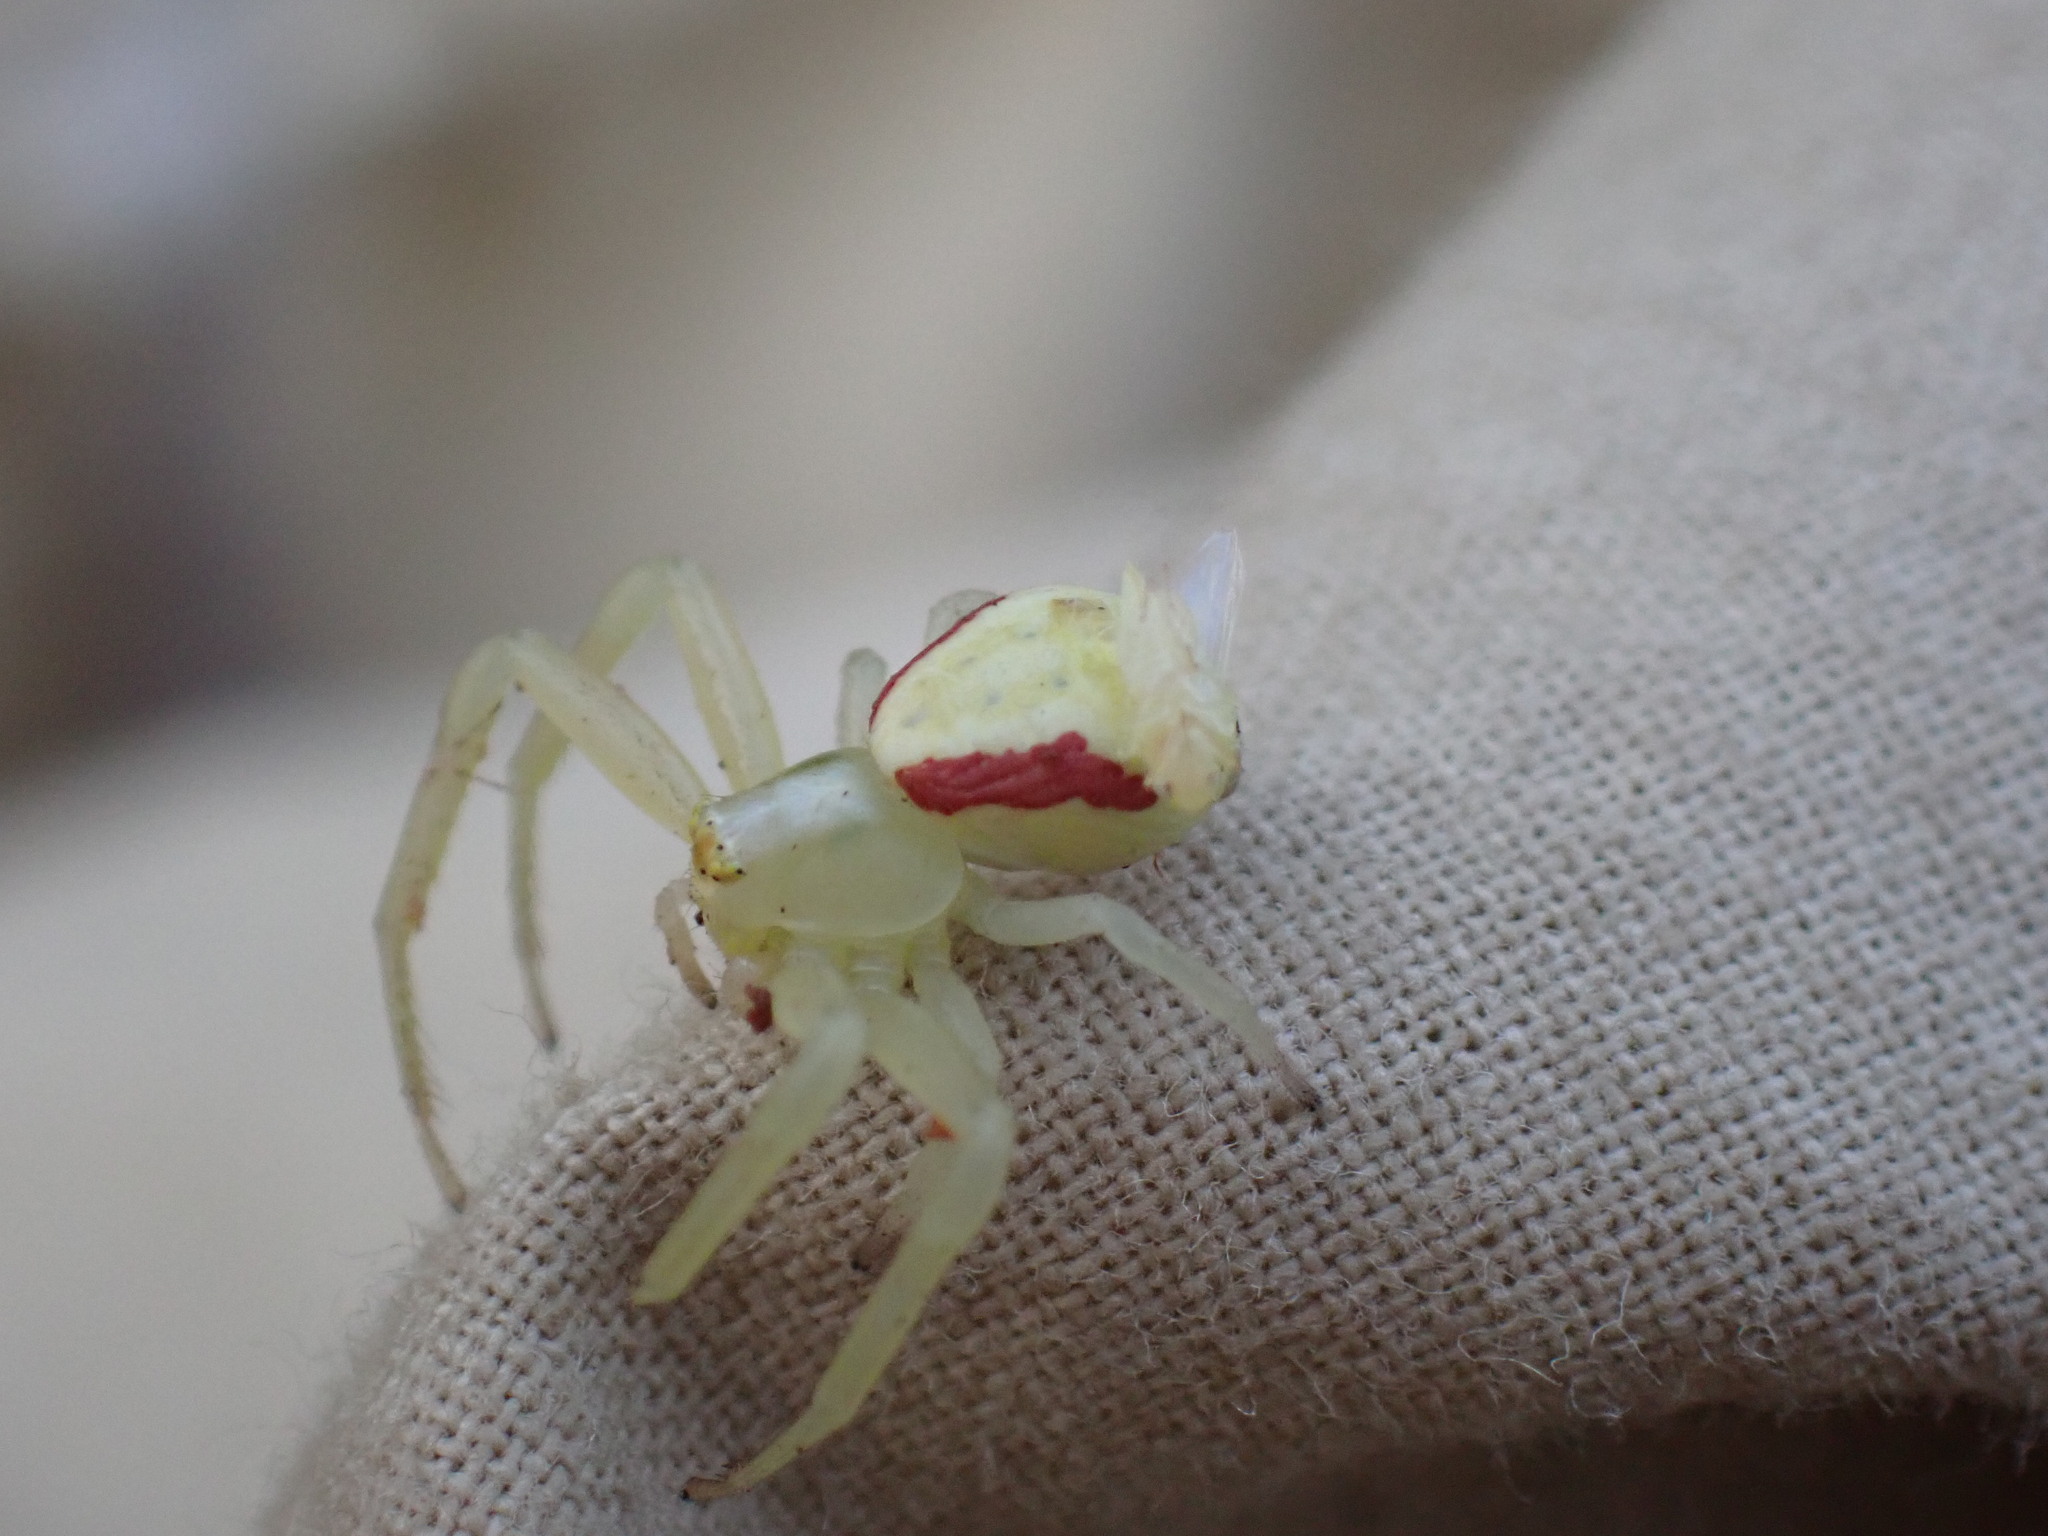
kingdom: Animalia
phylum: Arthropoda
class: Arachnida
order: Araneae
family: Thomisidae
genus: Misumena
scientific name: Misumena vatia
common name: Goldenrod crab spider
